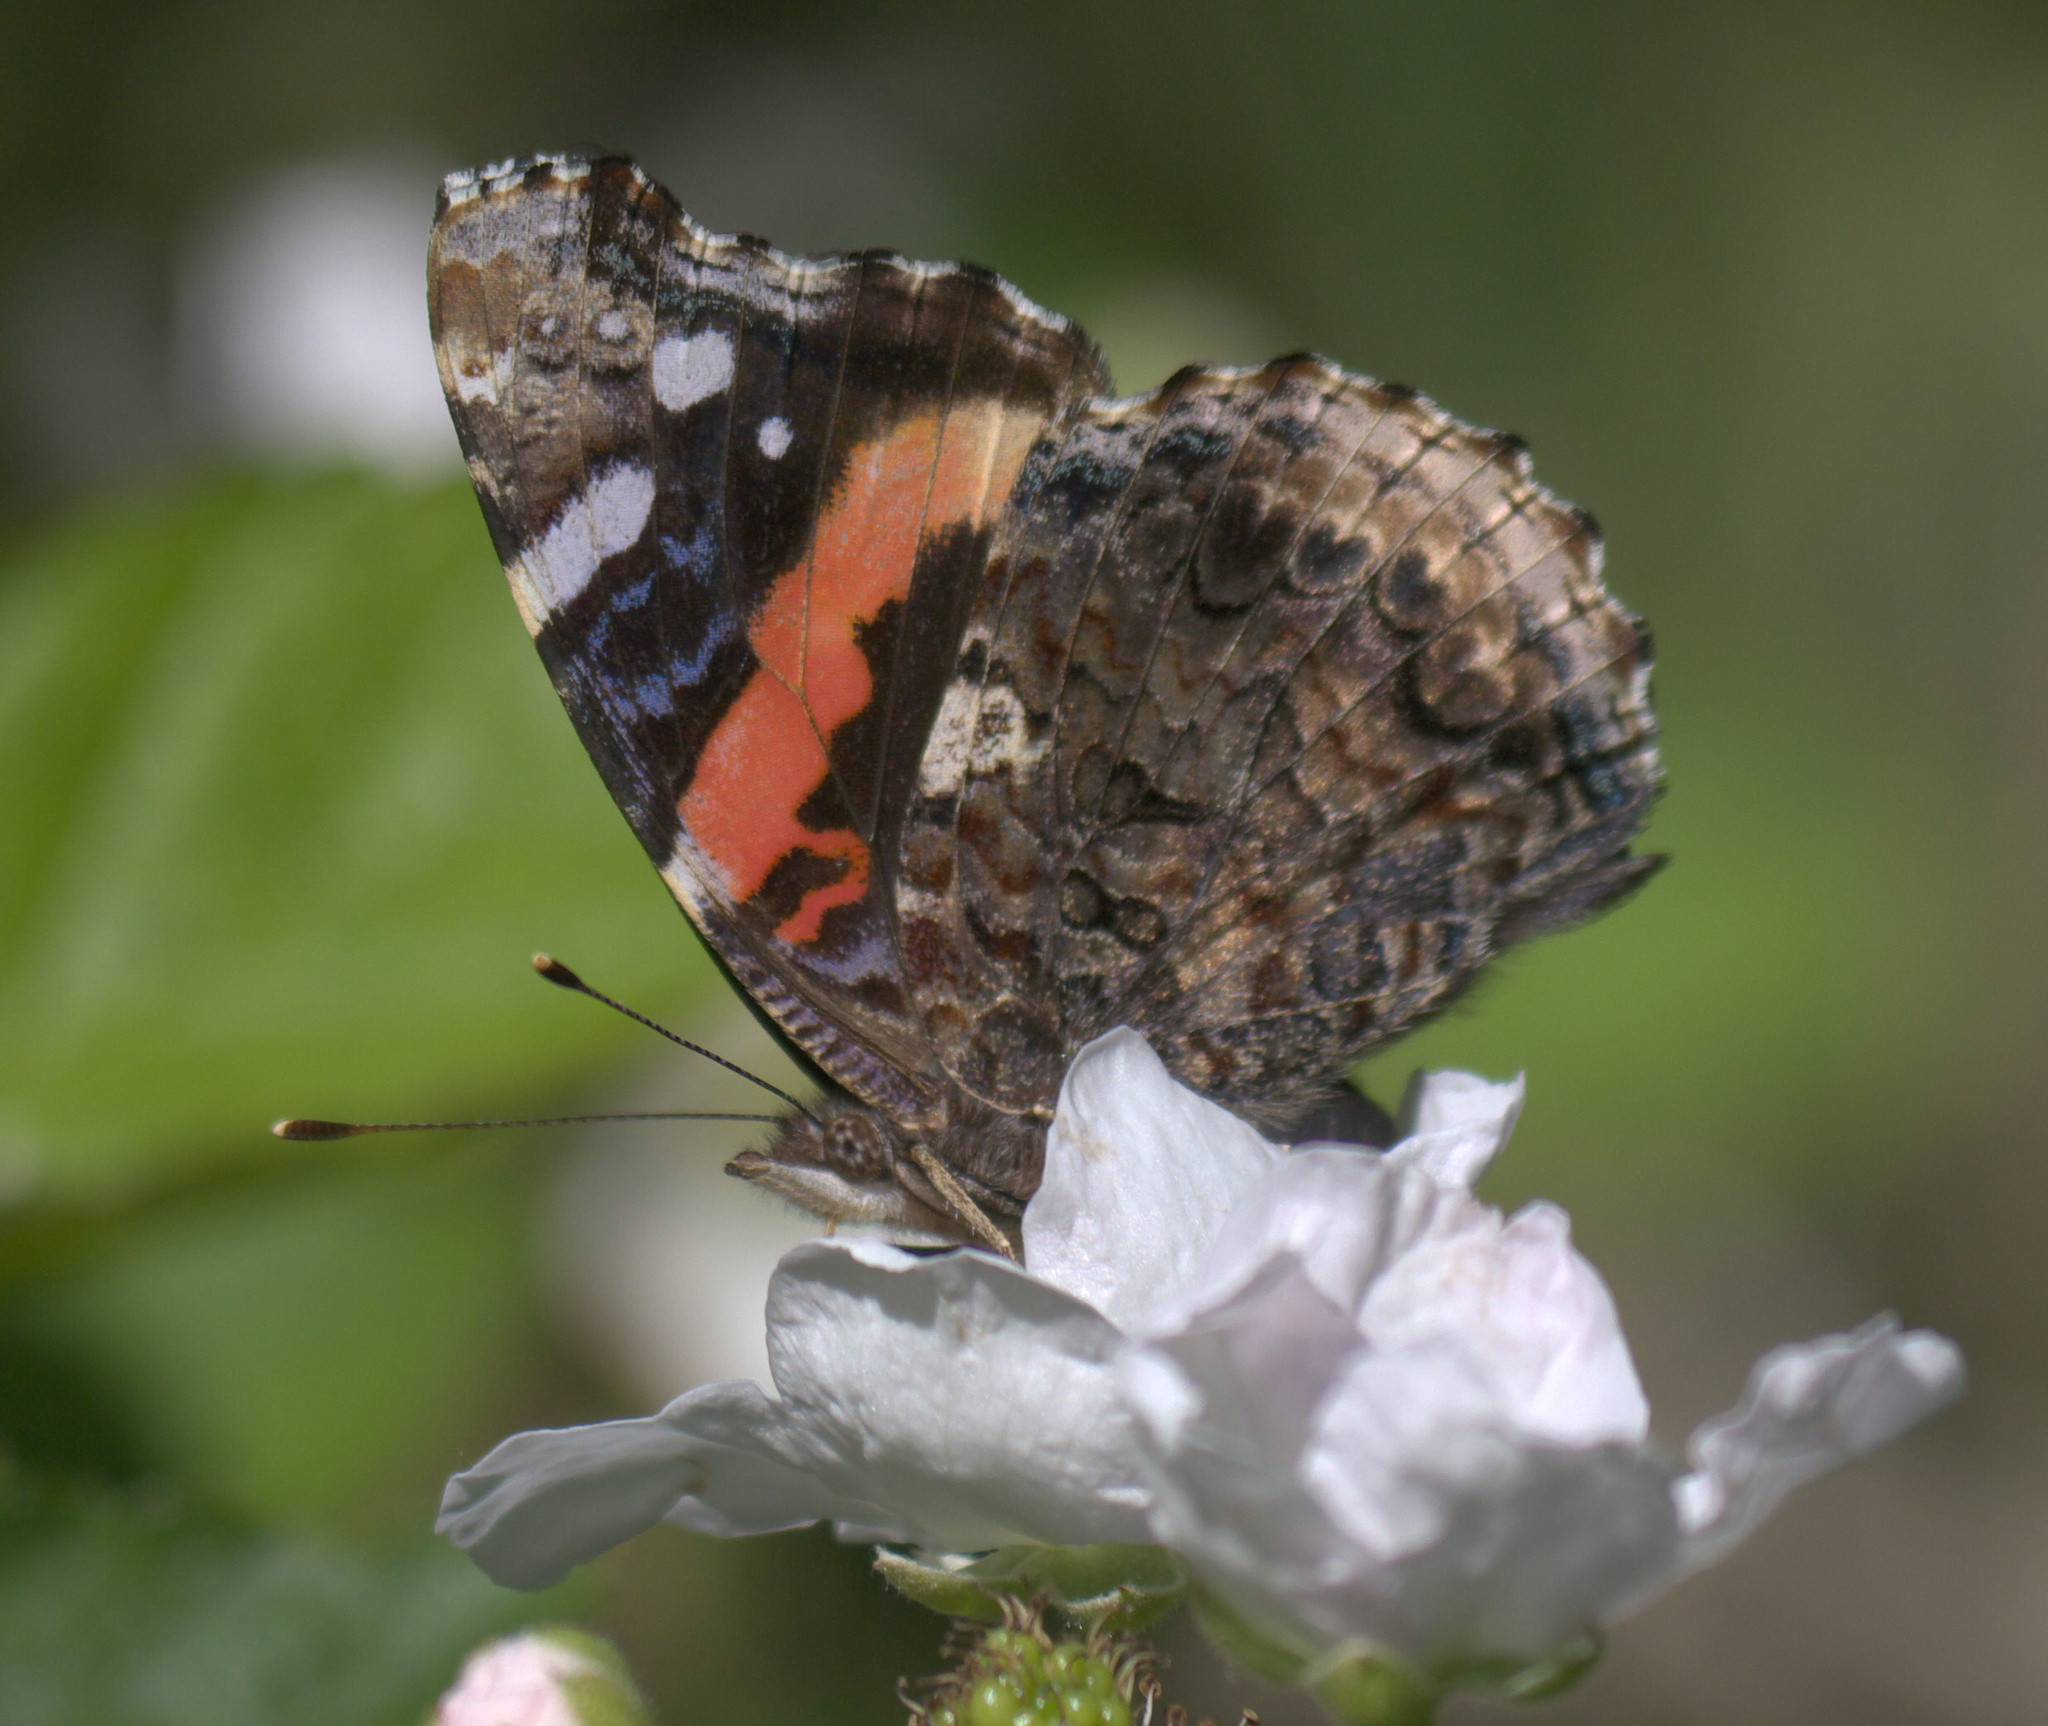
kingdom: Animalia
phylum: Arthropoda
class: Insecta
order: Lepidoptera
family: Nymphalidae
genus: Vanessa
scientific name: Vanessa atalanta
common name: Red admiral
